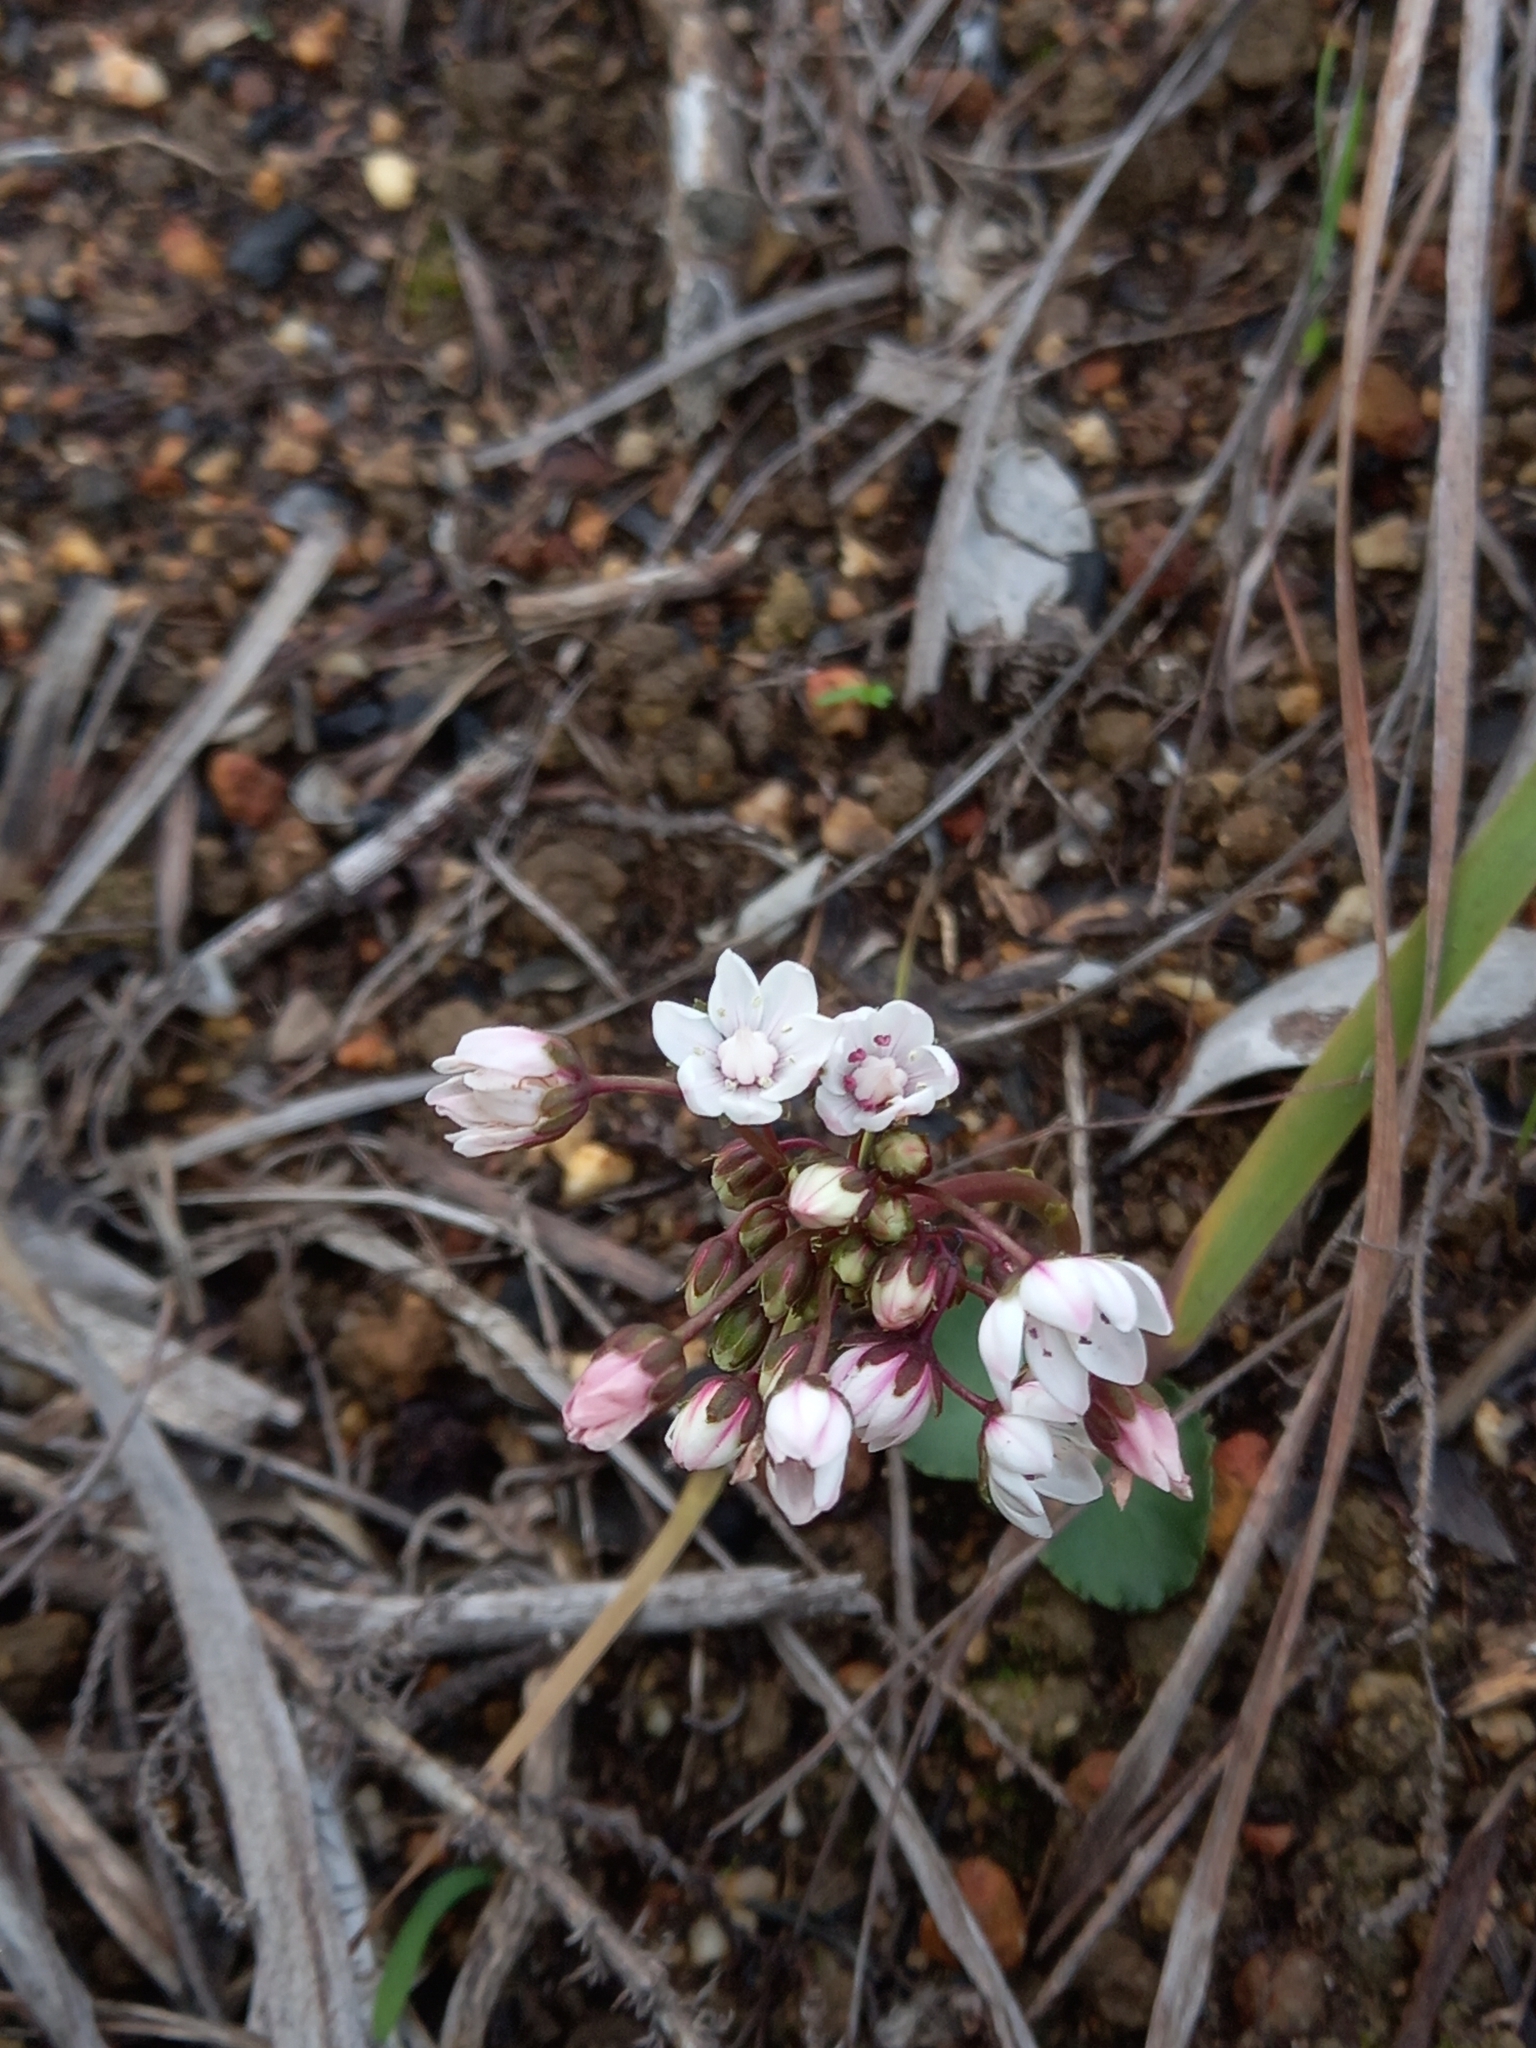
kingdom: Plantae
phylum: Tracheophyta
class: Magnoliopsida
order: Saxifragales
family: Crassulaceae
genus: Crassula
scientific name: Crassula capensis
